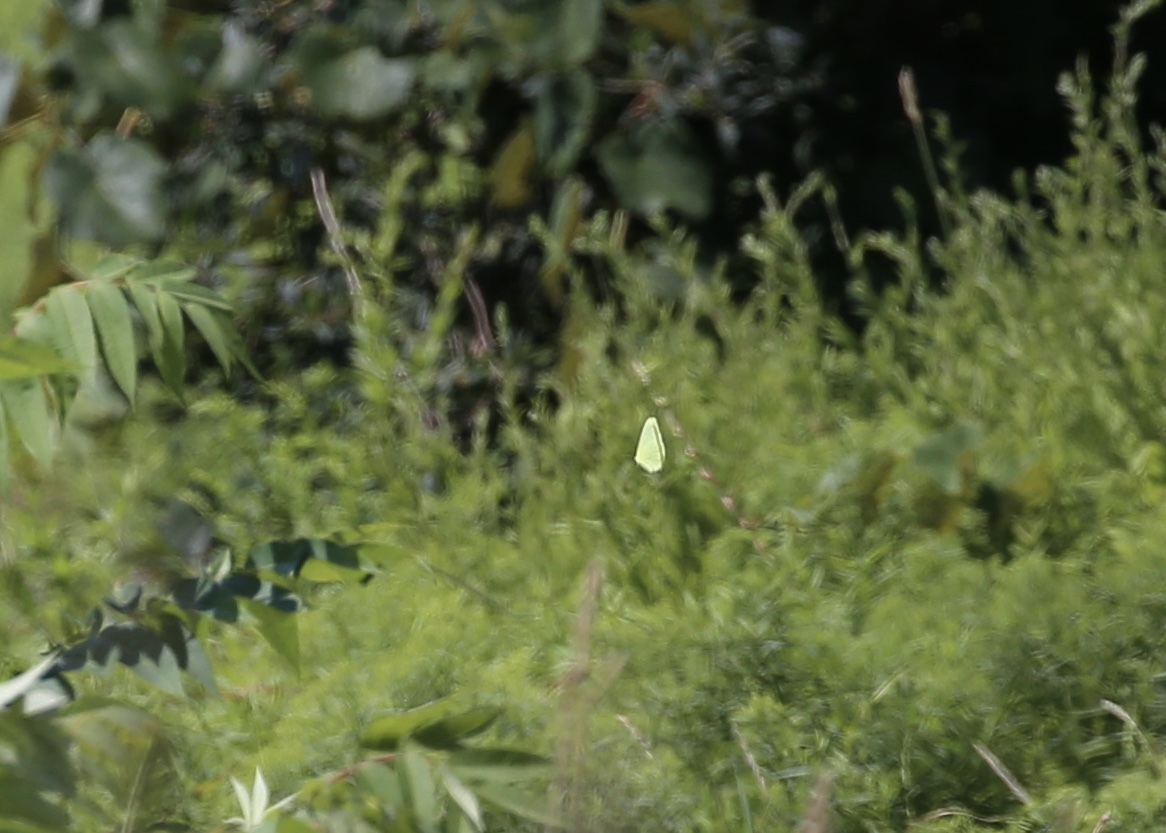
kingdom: Animalia
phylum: Arthropoda
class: Insecta
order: Lepidoptera
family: Pieridae
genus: Phoebis
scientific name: Phoebis sennae
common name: Cloudless sulphur
